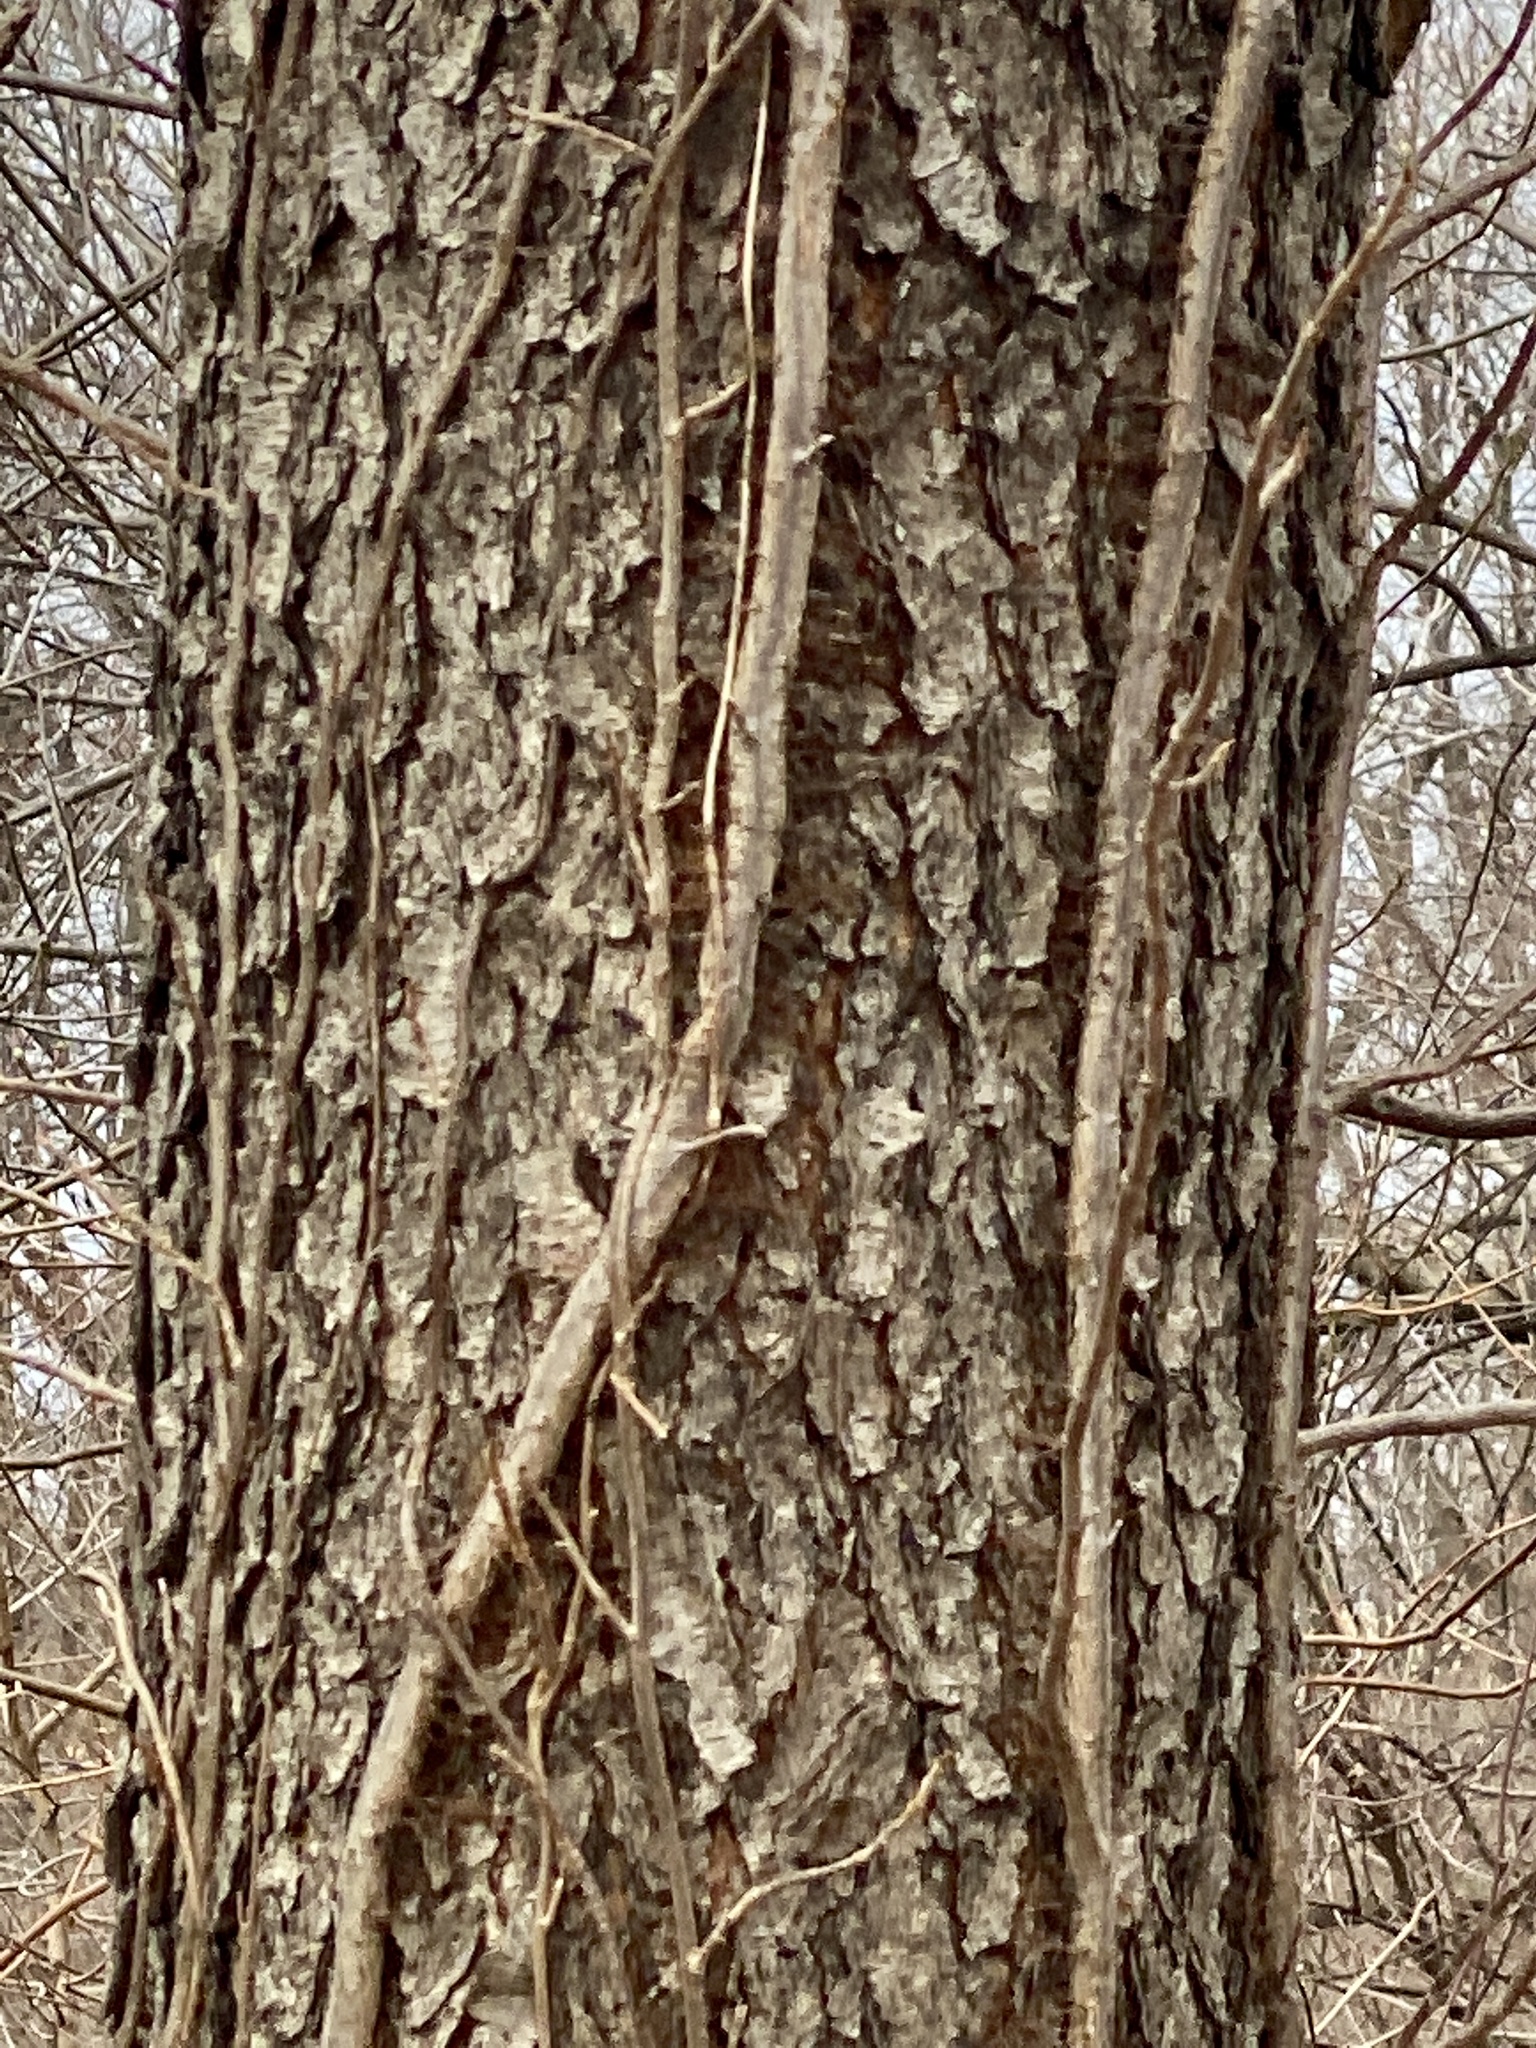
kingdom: Plantae
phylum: Tracheophyta
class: Magnoliopsida
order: Rosales
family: Rosaceae
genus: Prunus
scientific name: Prunus serotina
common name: Black cherry
